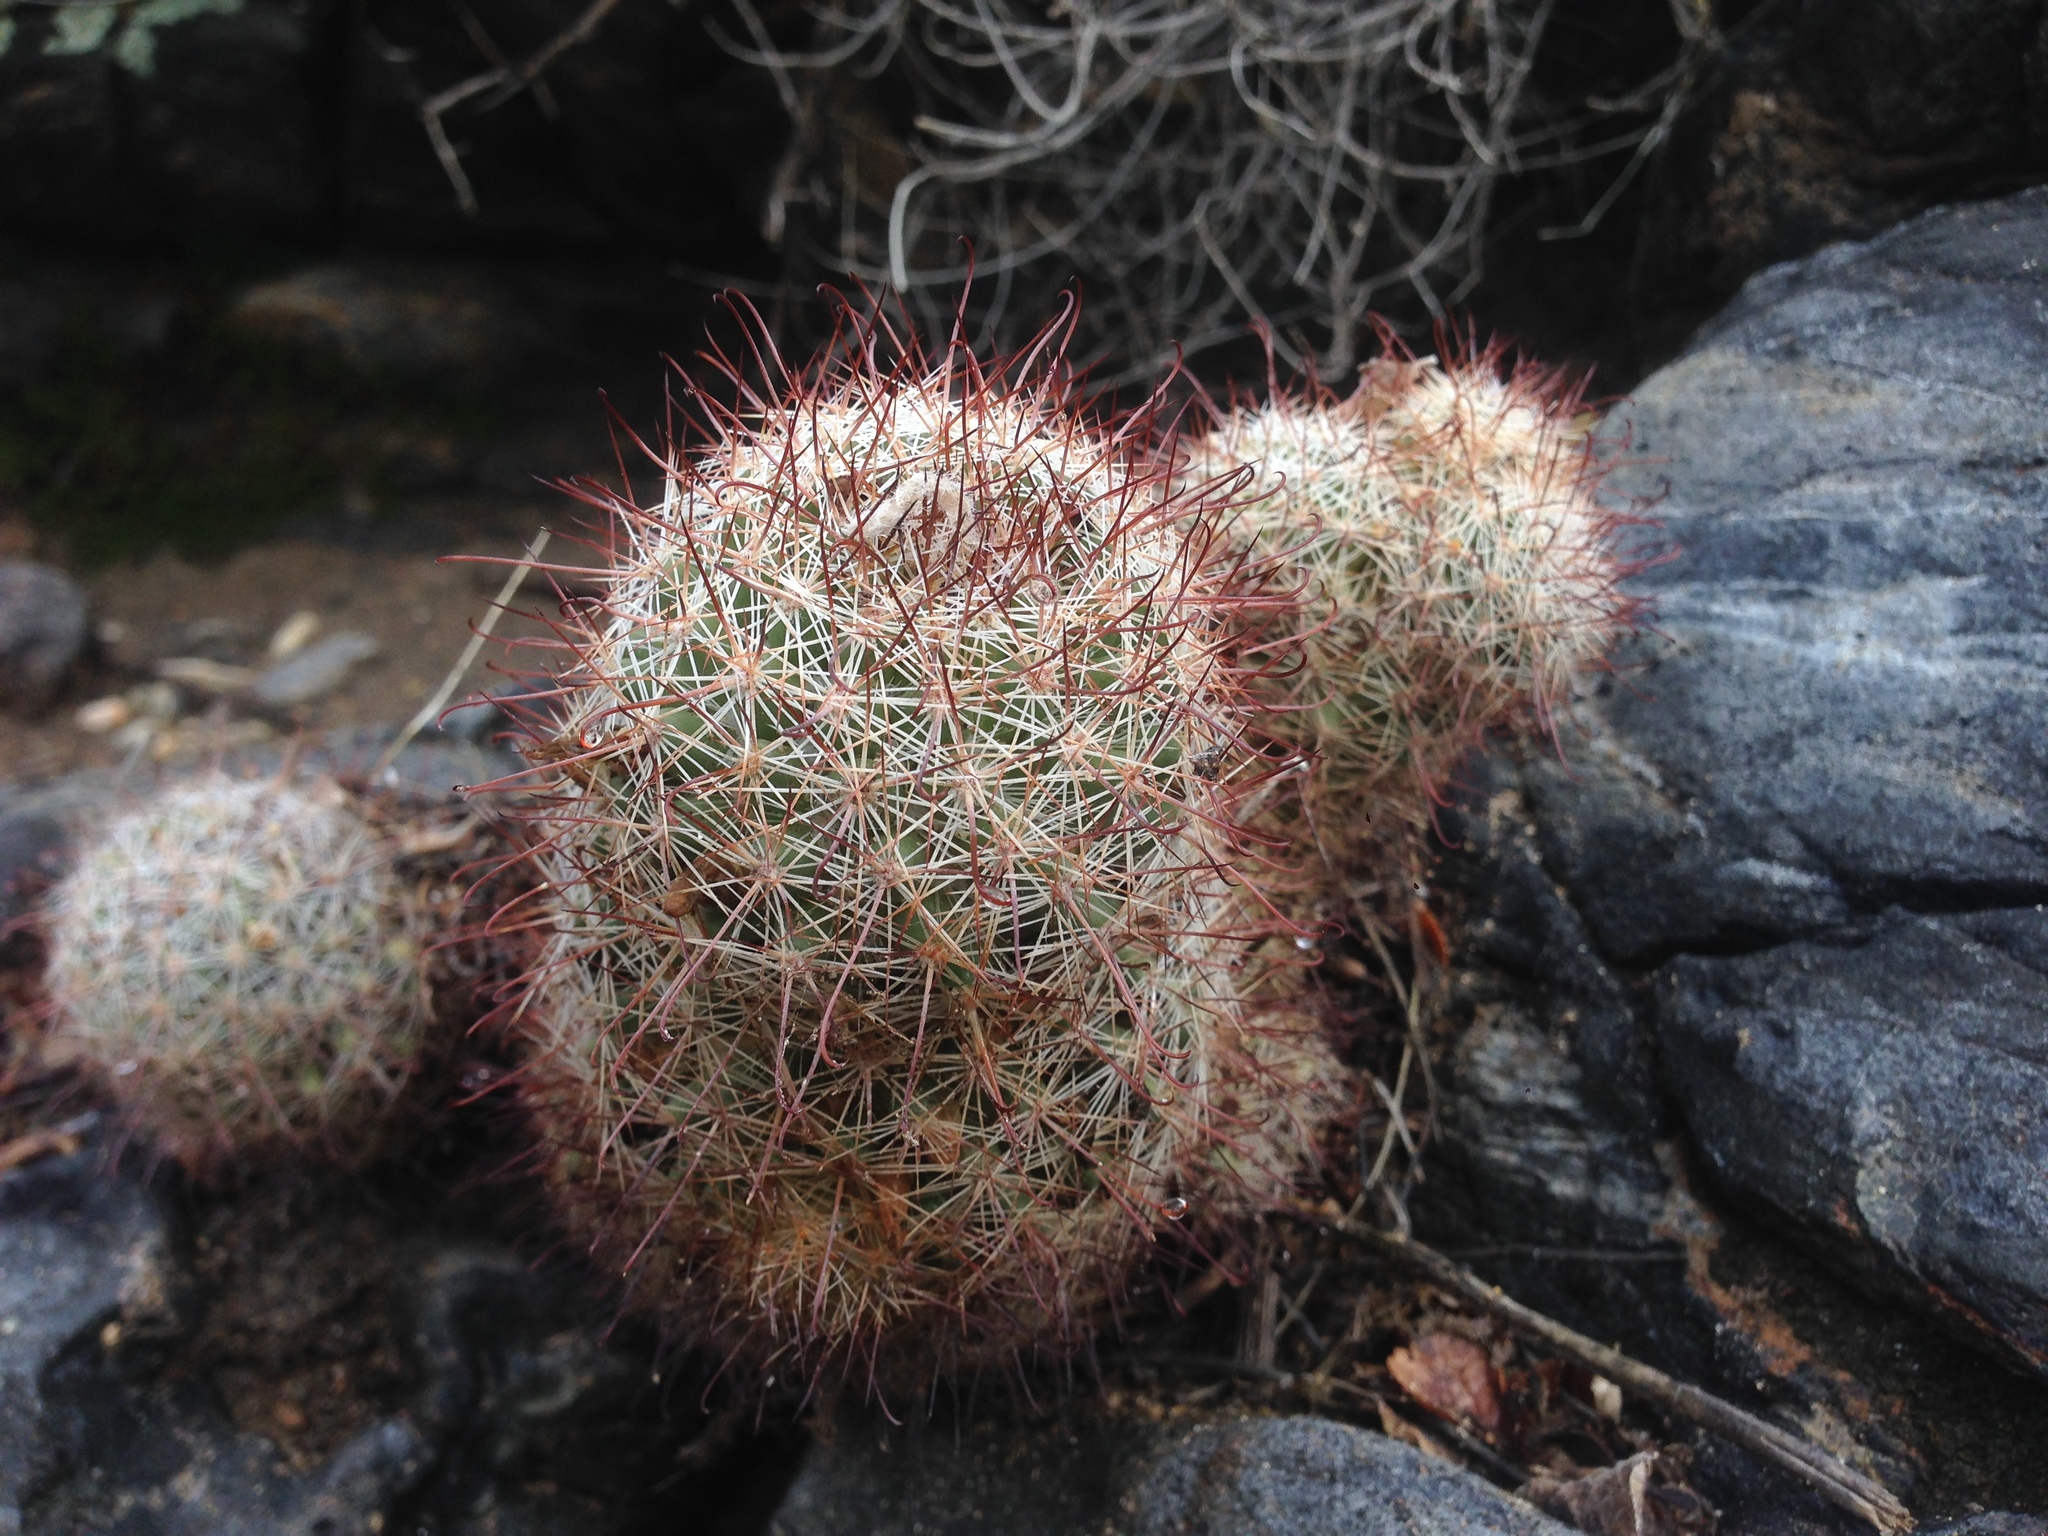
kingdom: Plantae
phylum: Tracheophyta
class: Magnoliopsida
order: Caryophyllales
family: Cactaceae
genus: Cochemiea
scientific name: Cochemiea dioica
